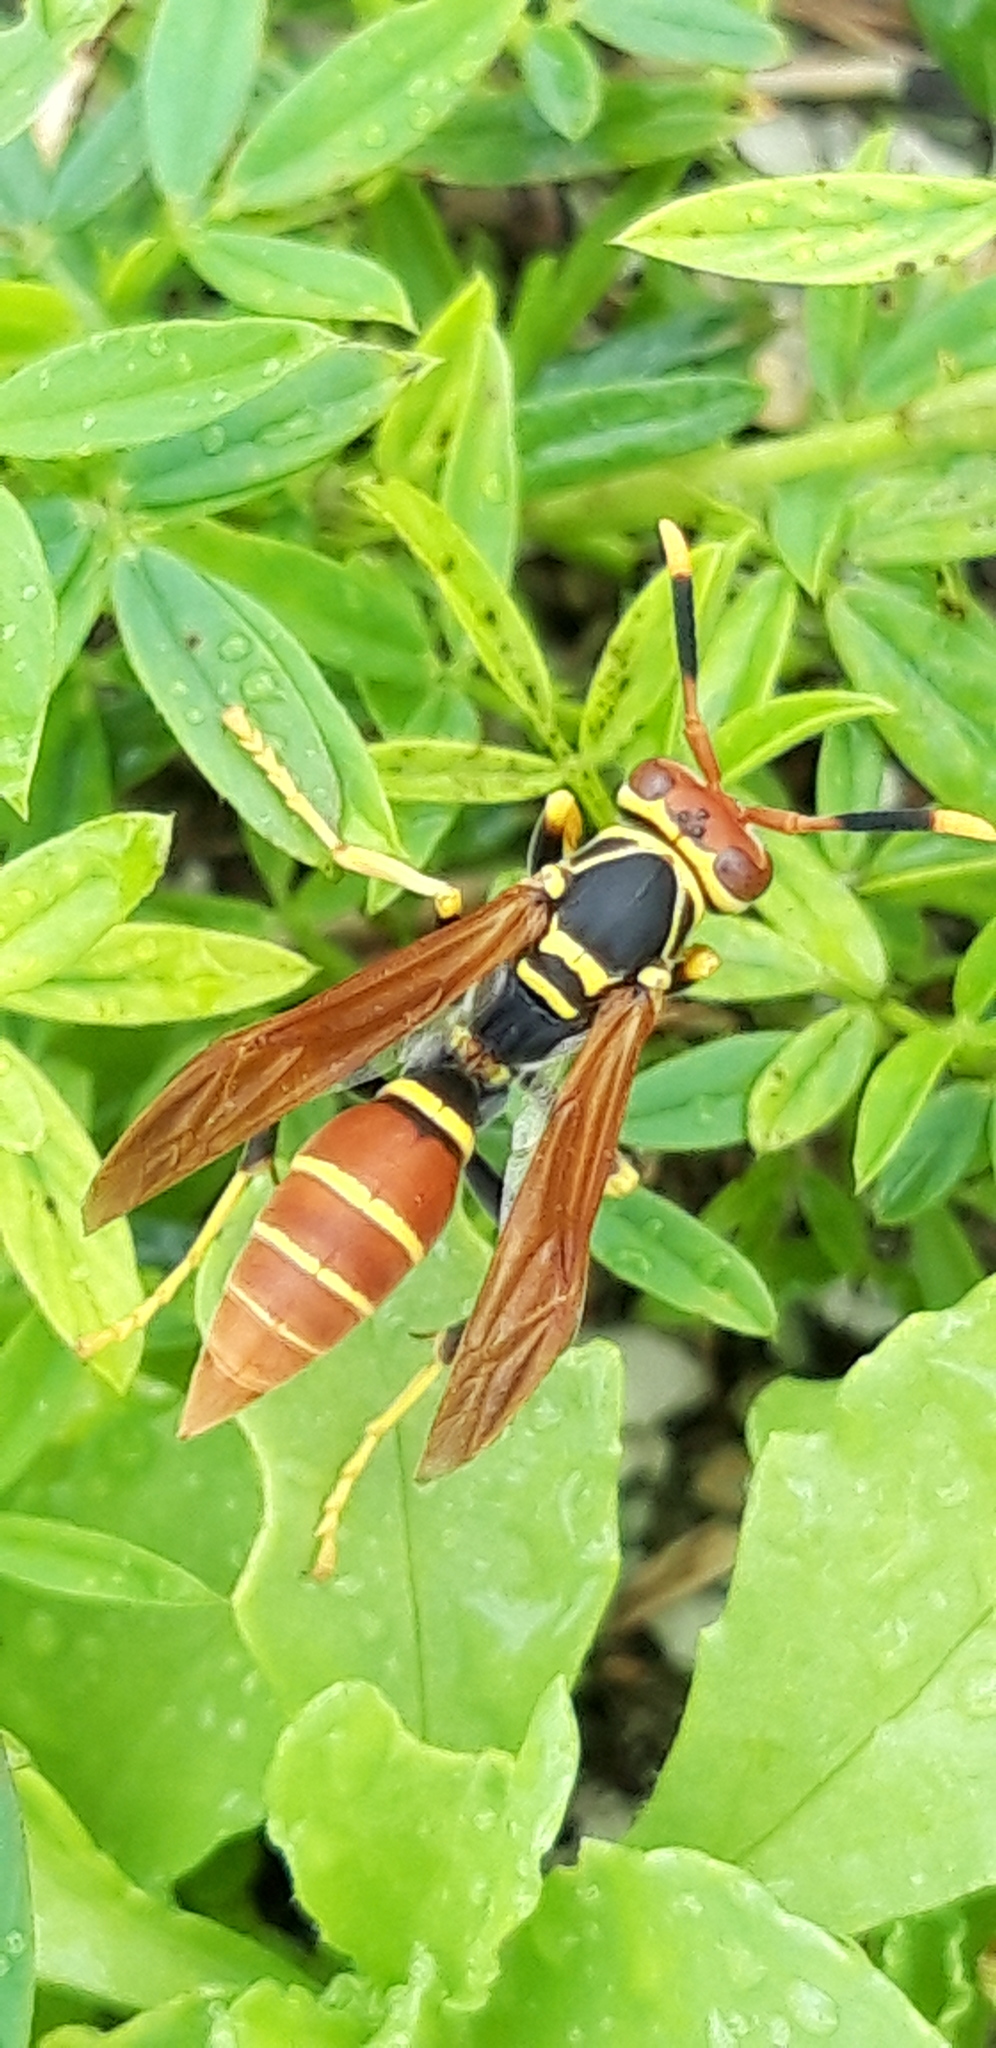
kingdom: Animalia
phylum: Arthropoda
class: Insecta
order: Hymenoptera
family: Eumenidae
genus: Polistes
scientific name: Polistes crinitus
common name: Jack spaniard
